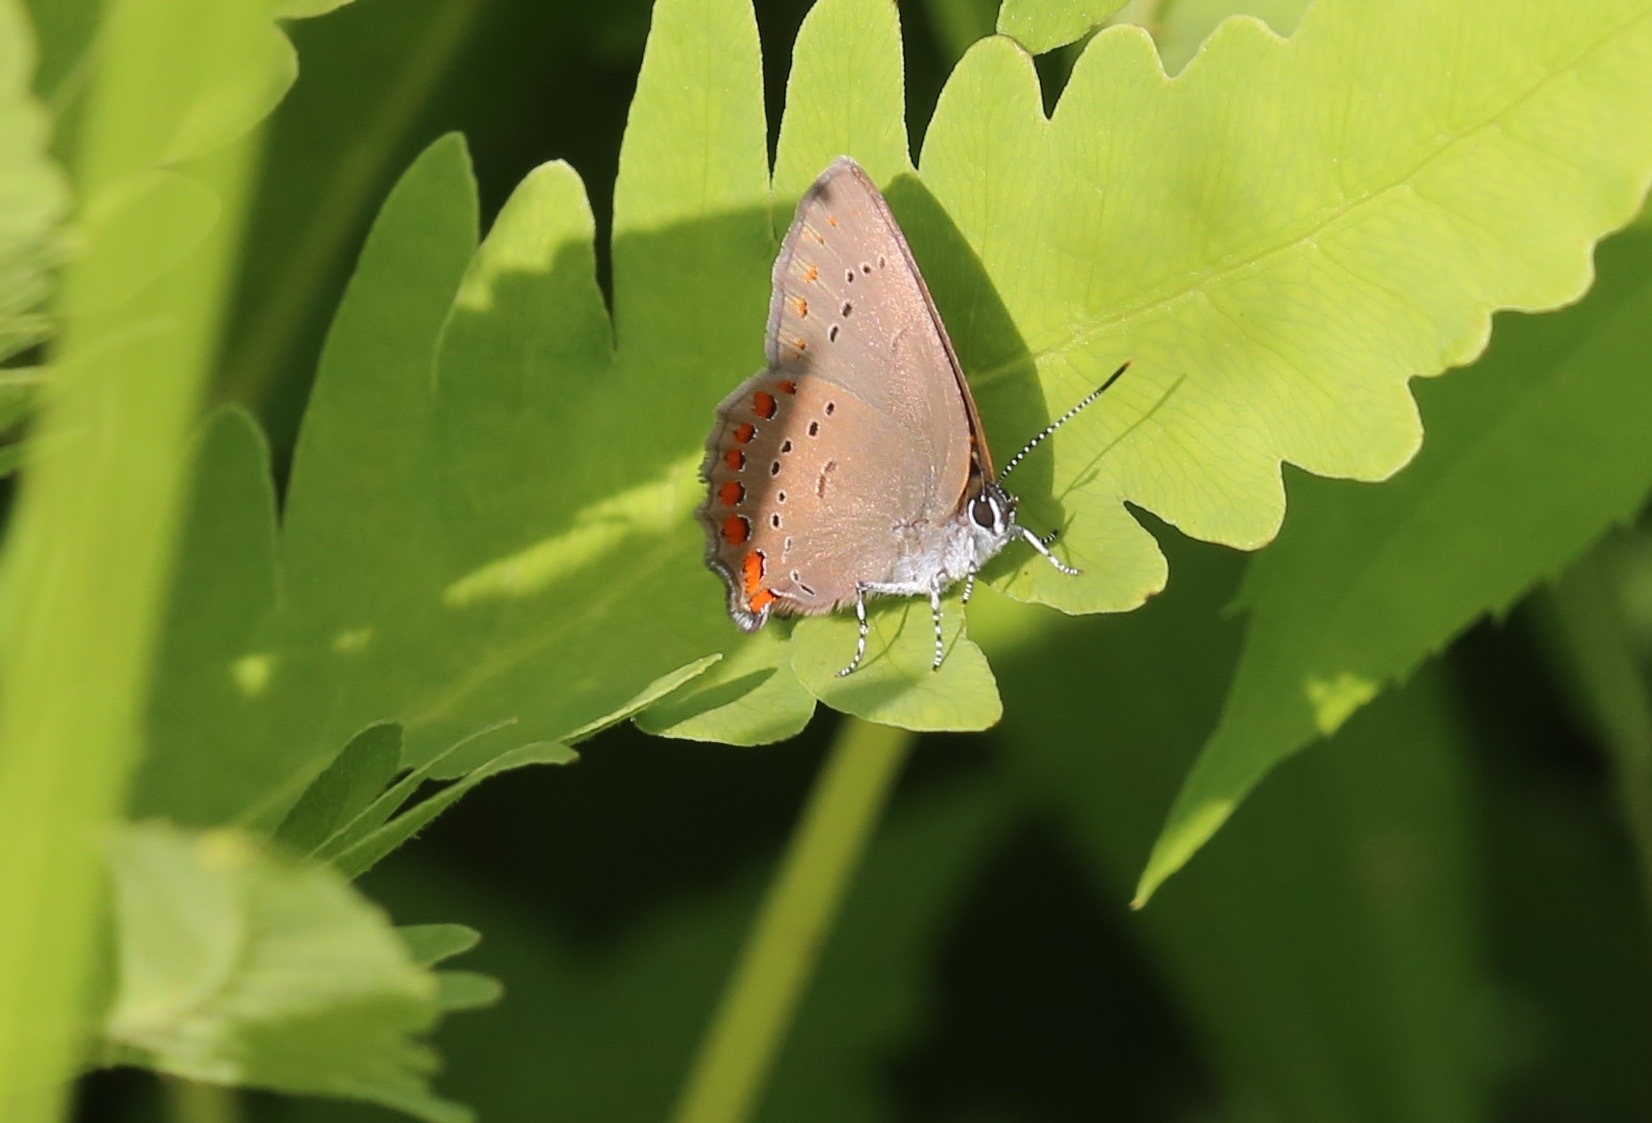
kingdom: Animalia
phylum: Arthropoda
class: Insecta
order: Lepidoptera
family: Lycaenidae
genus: Harkenclenus
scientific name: Harkenclenus titus
